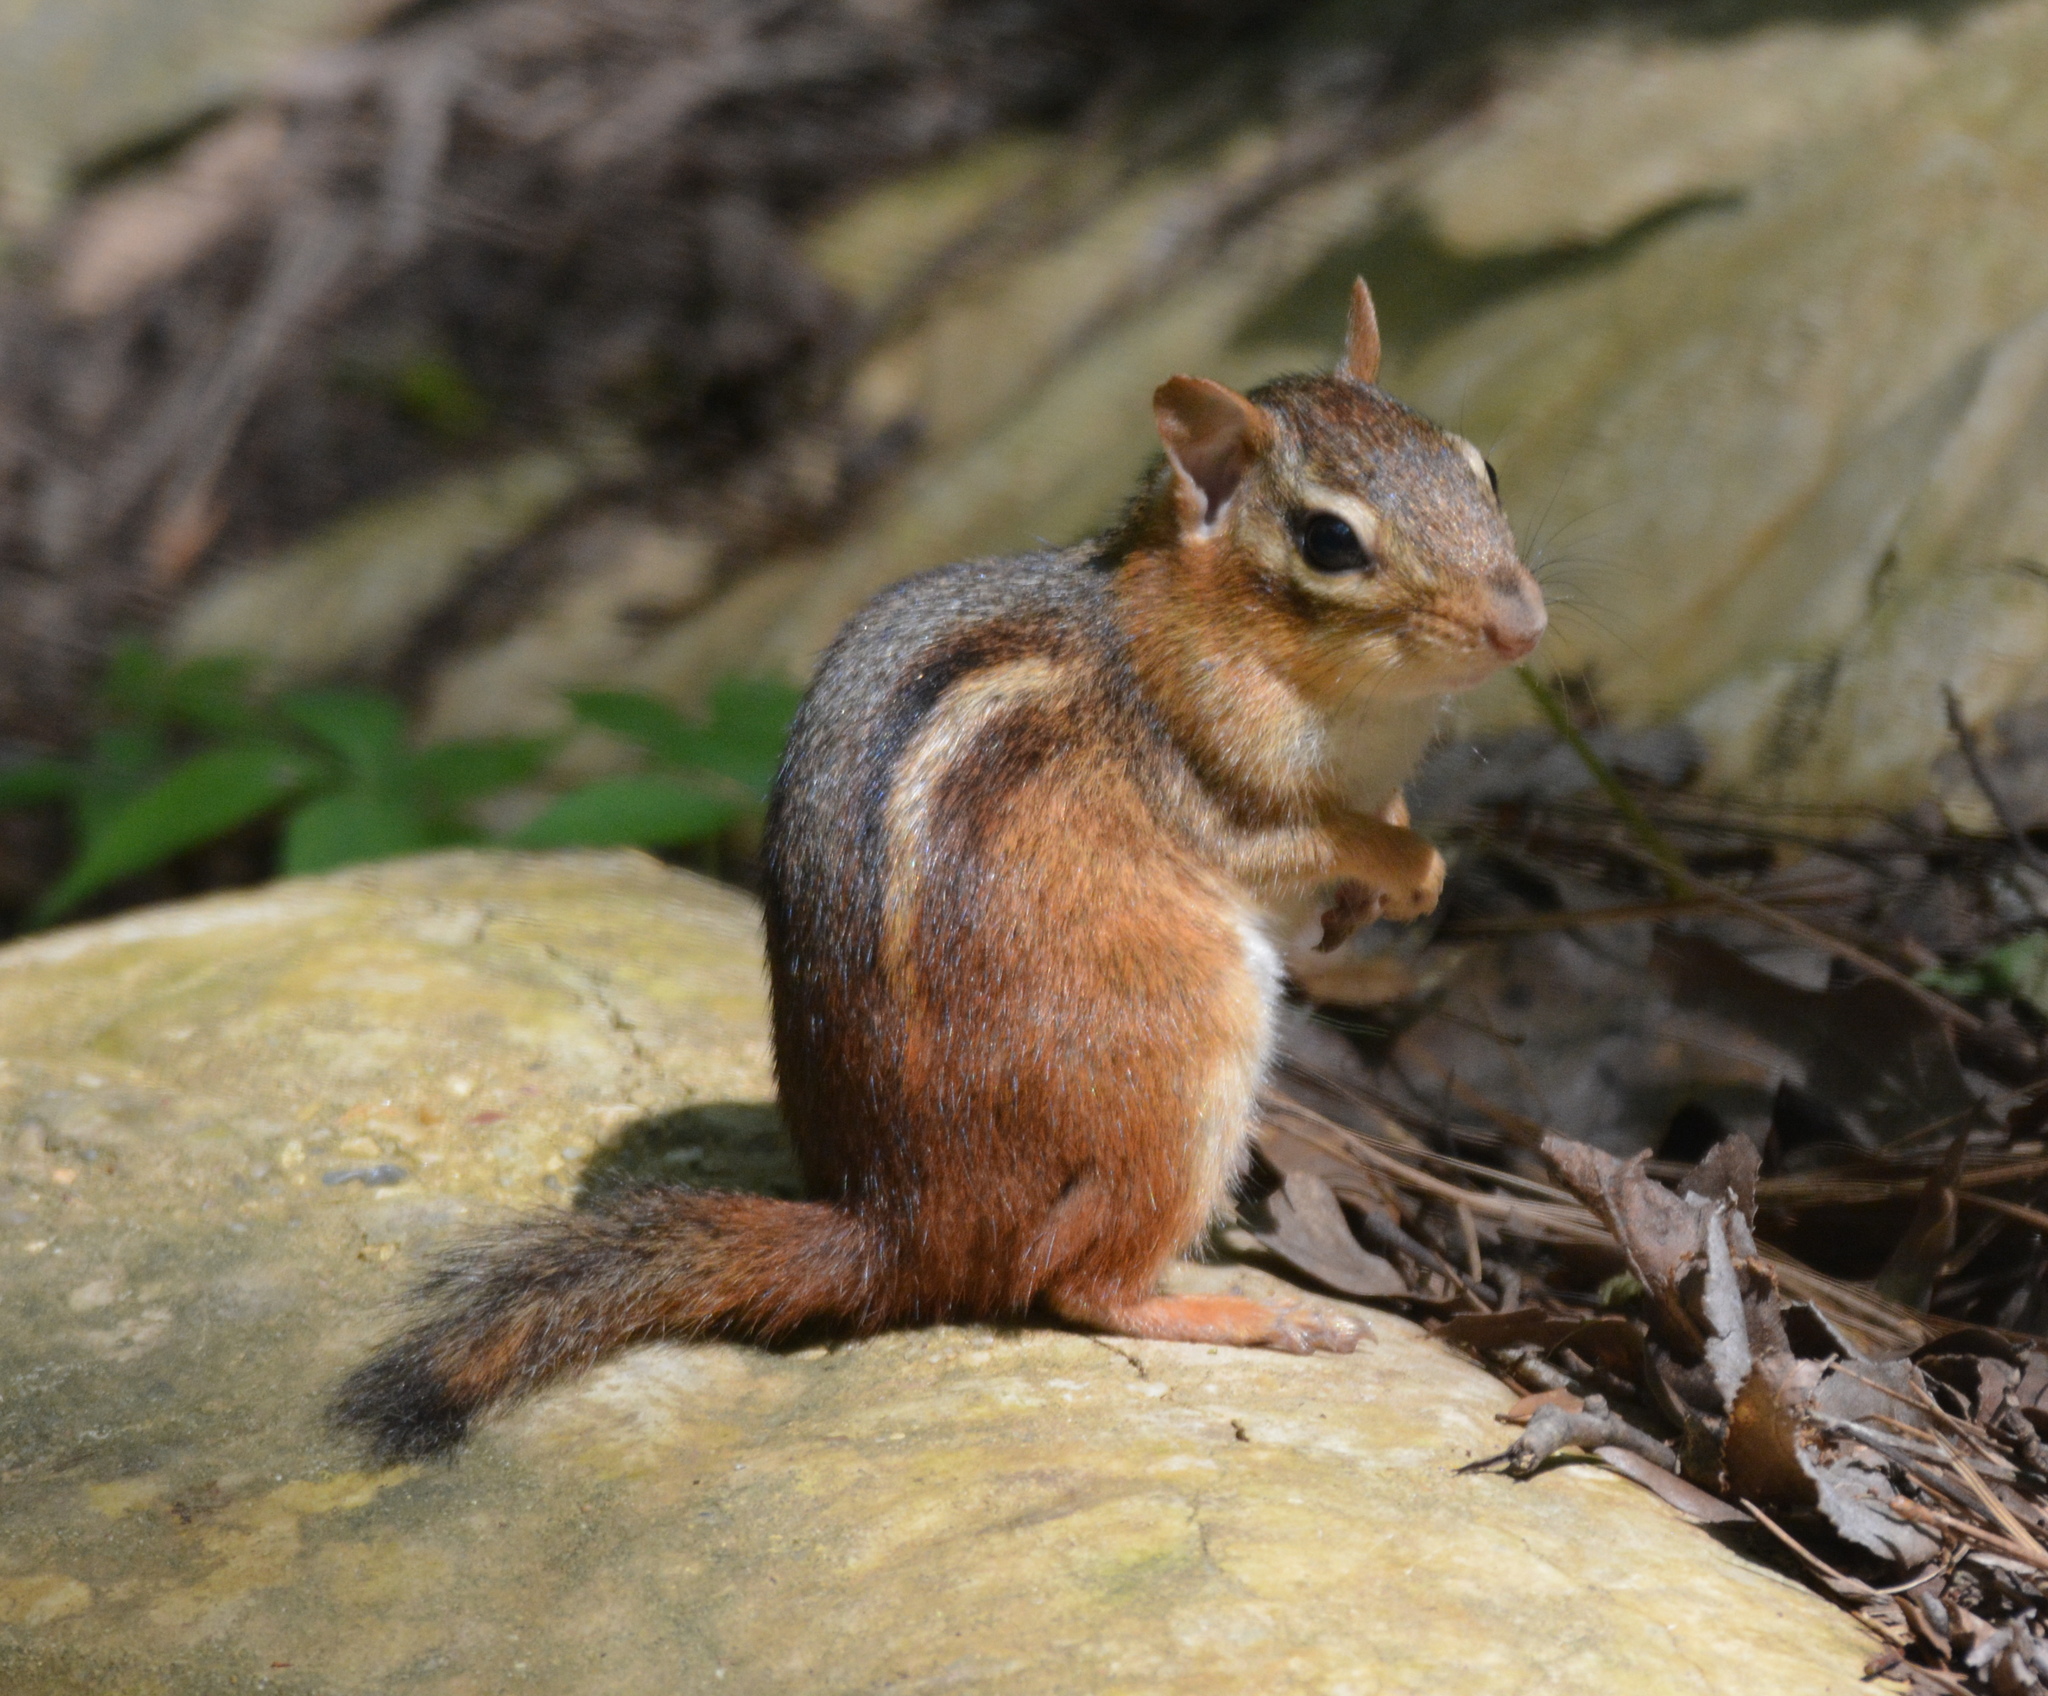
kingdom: Animalia
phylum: Chordata
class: Mammalia
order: Rodentia
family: Sciuridae
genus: Tamias
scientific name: Tamias striatus
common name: Eastern chipmunk
